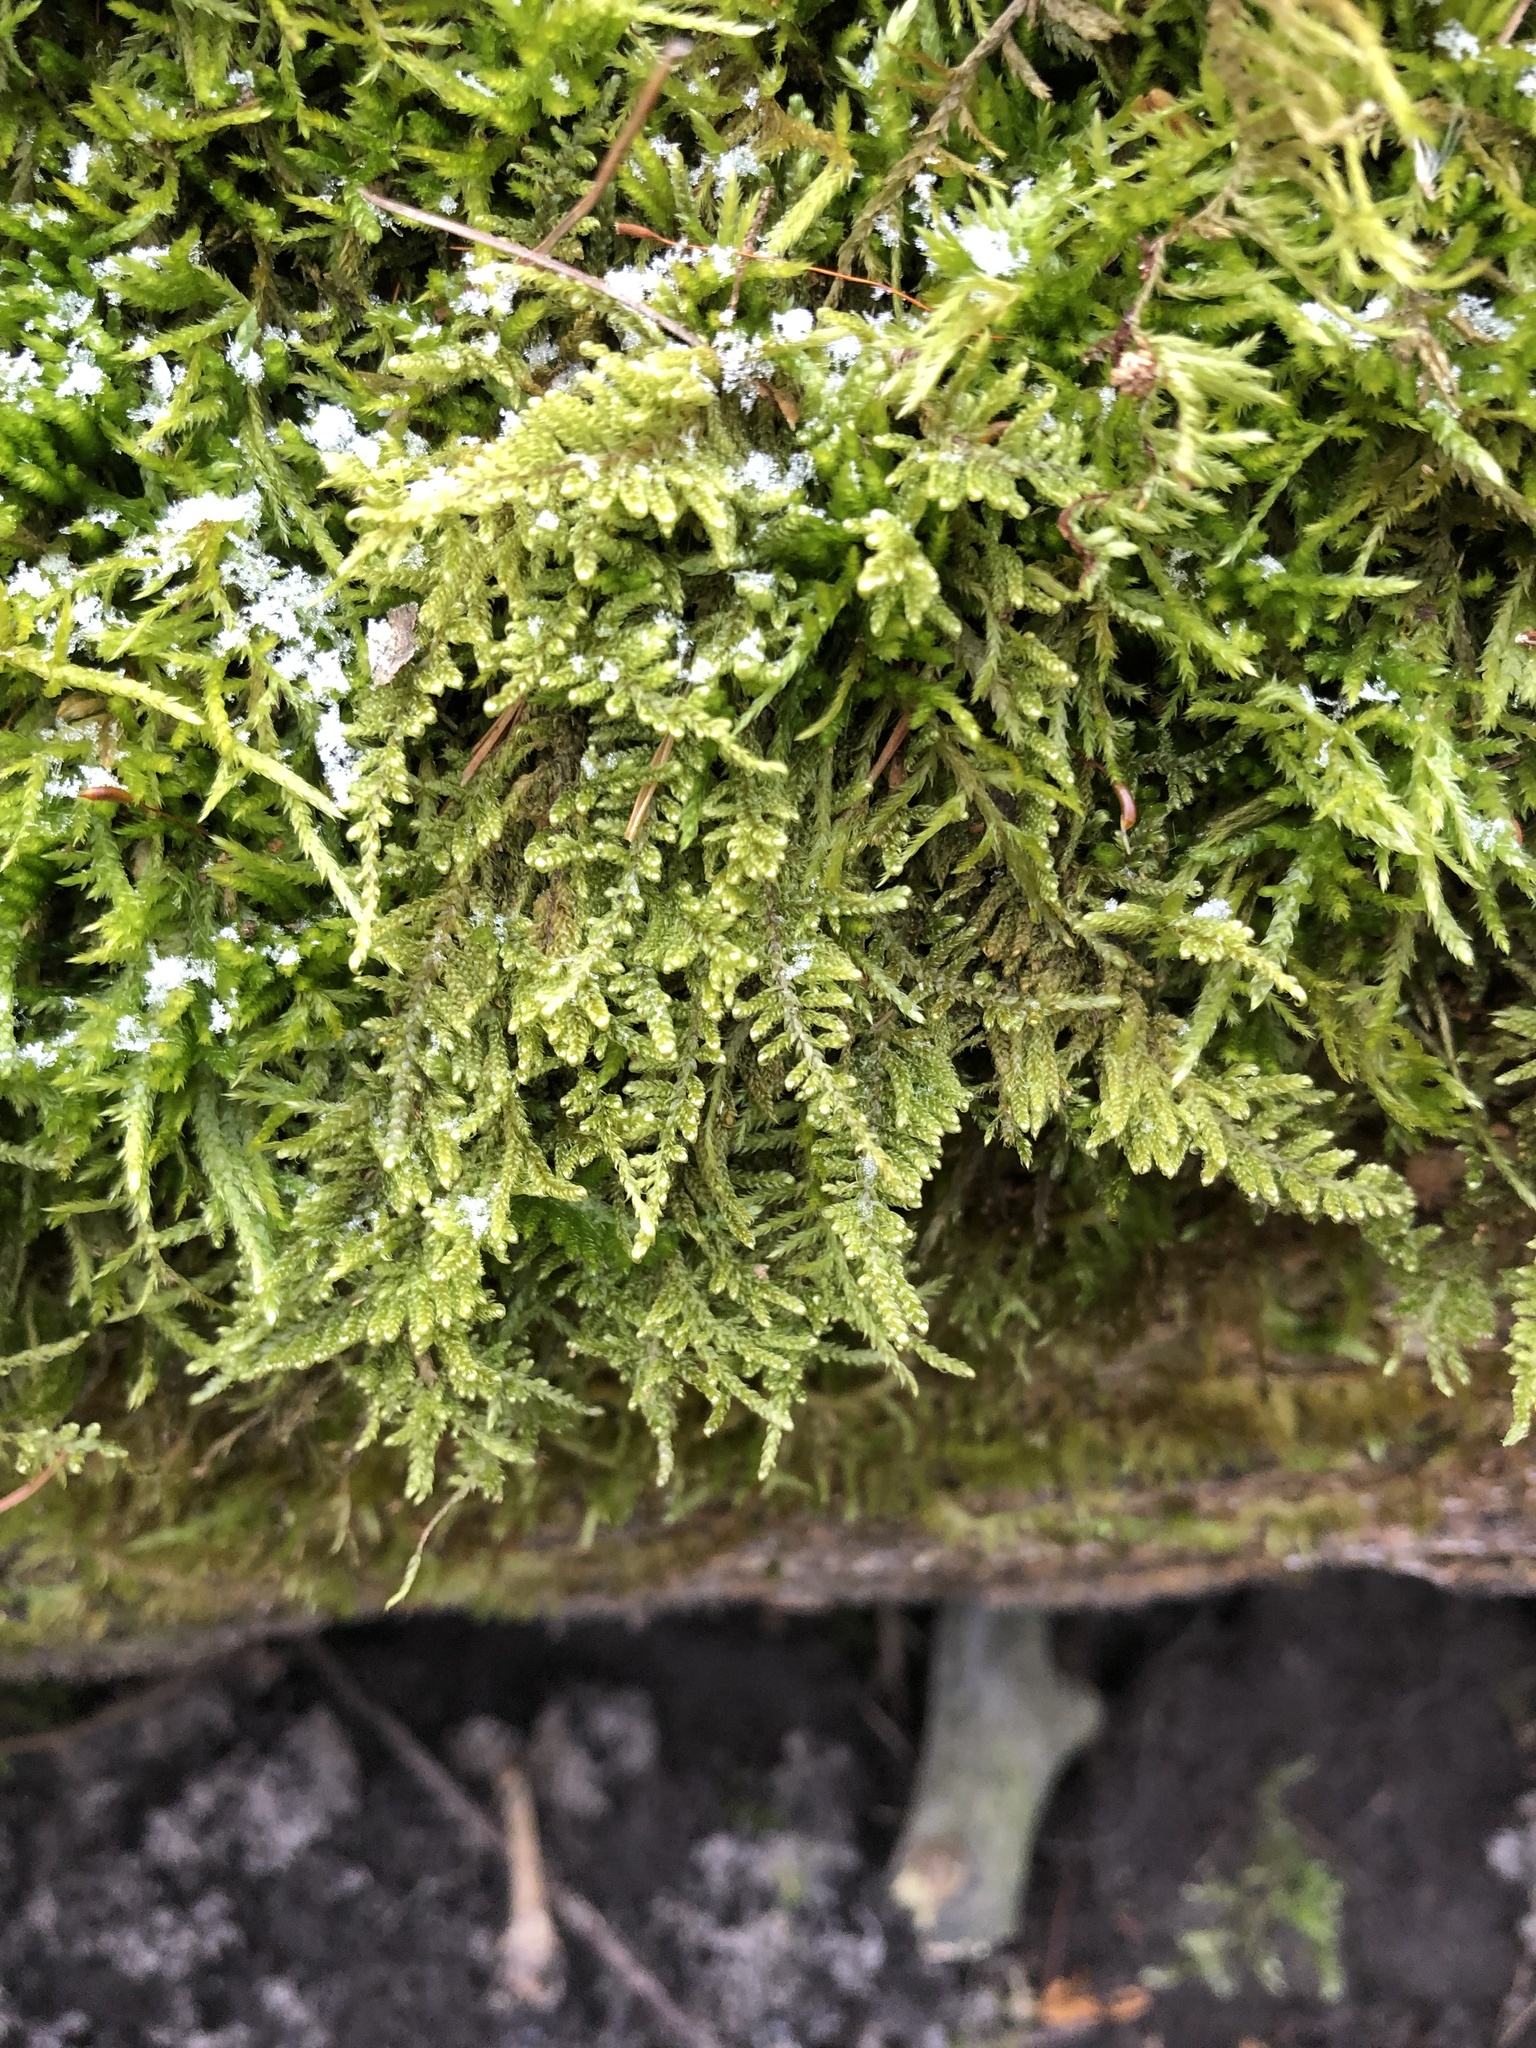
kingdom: Plantae
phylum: Bryophyta
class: Bryopsida
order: Hypnales
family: Callicladiaceae
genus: Callicladium
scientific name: Callicladium imponens
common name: Brocade moss
